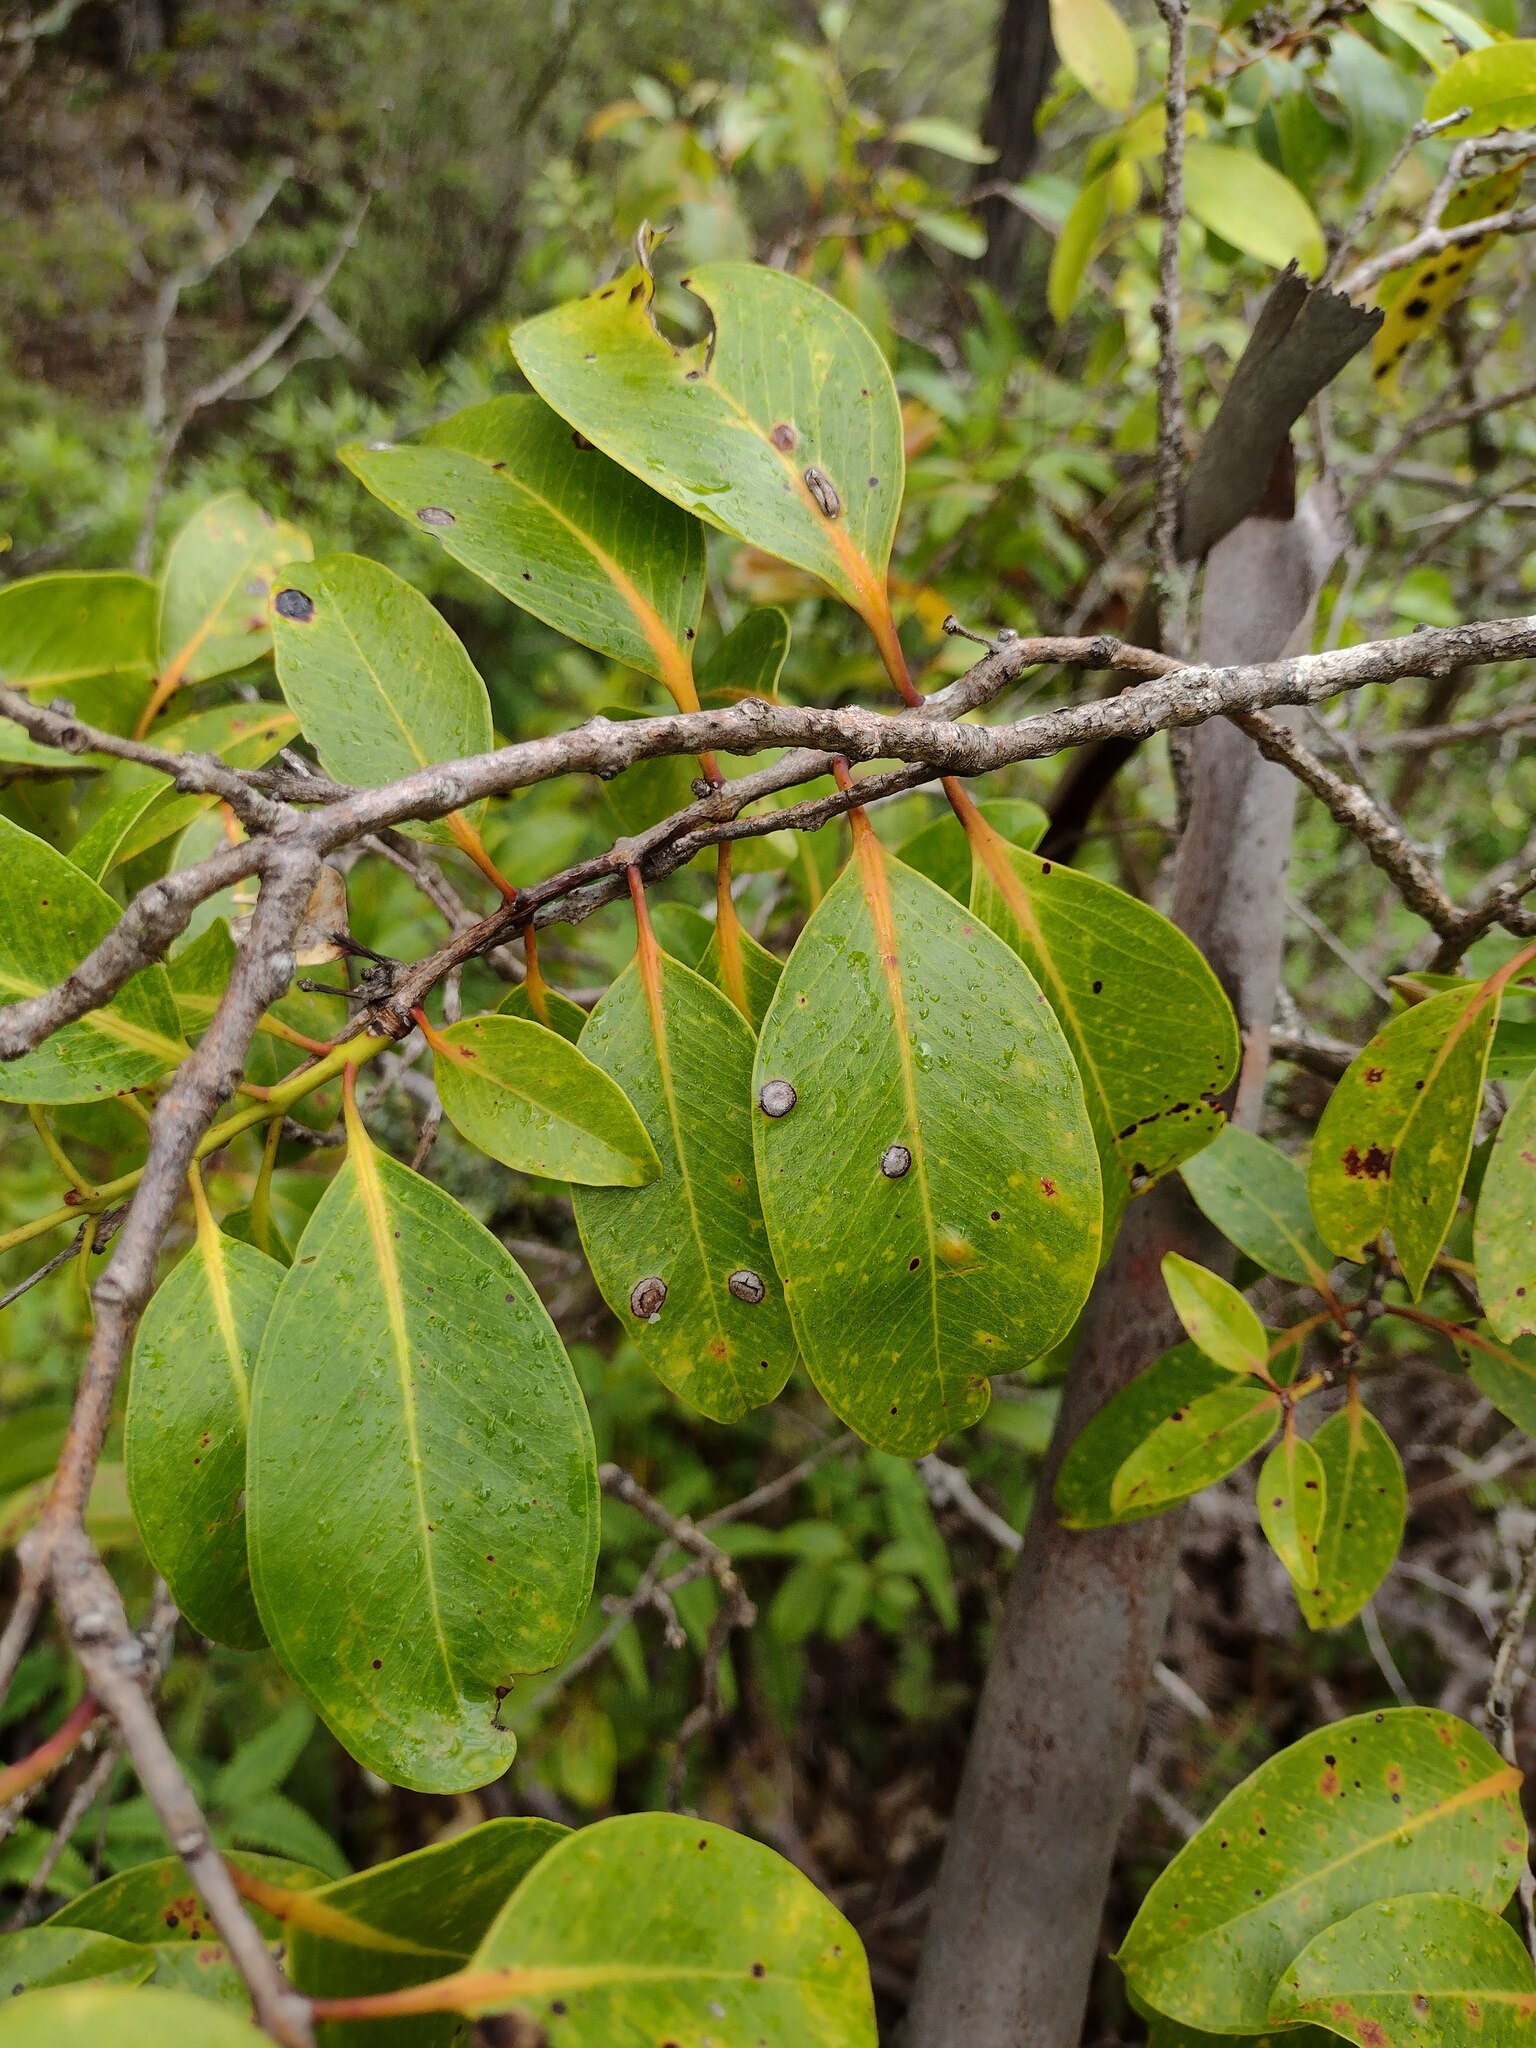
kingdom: Plantae
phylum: Tracheophyta
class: Magnoliopsida
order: Myrtales
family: Myrtaceae
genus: Metrosideros
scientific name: Metrosideros polymorpha
